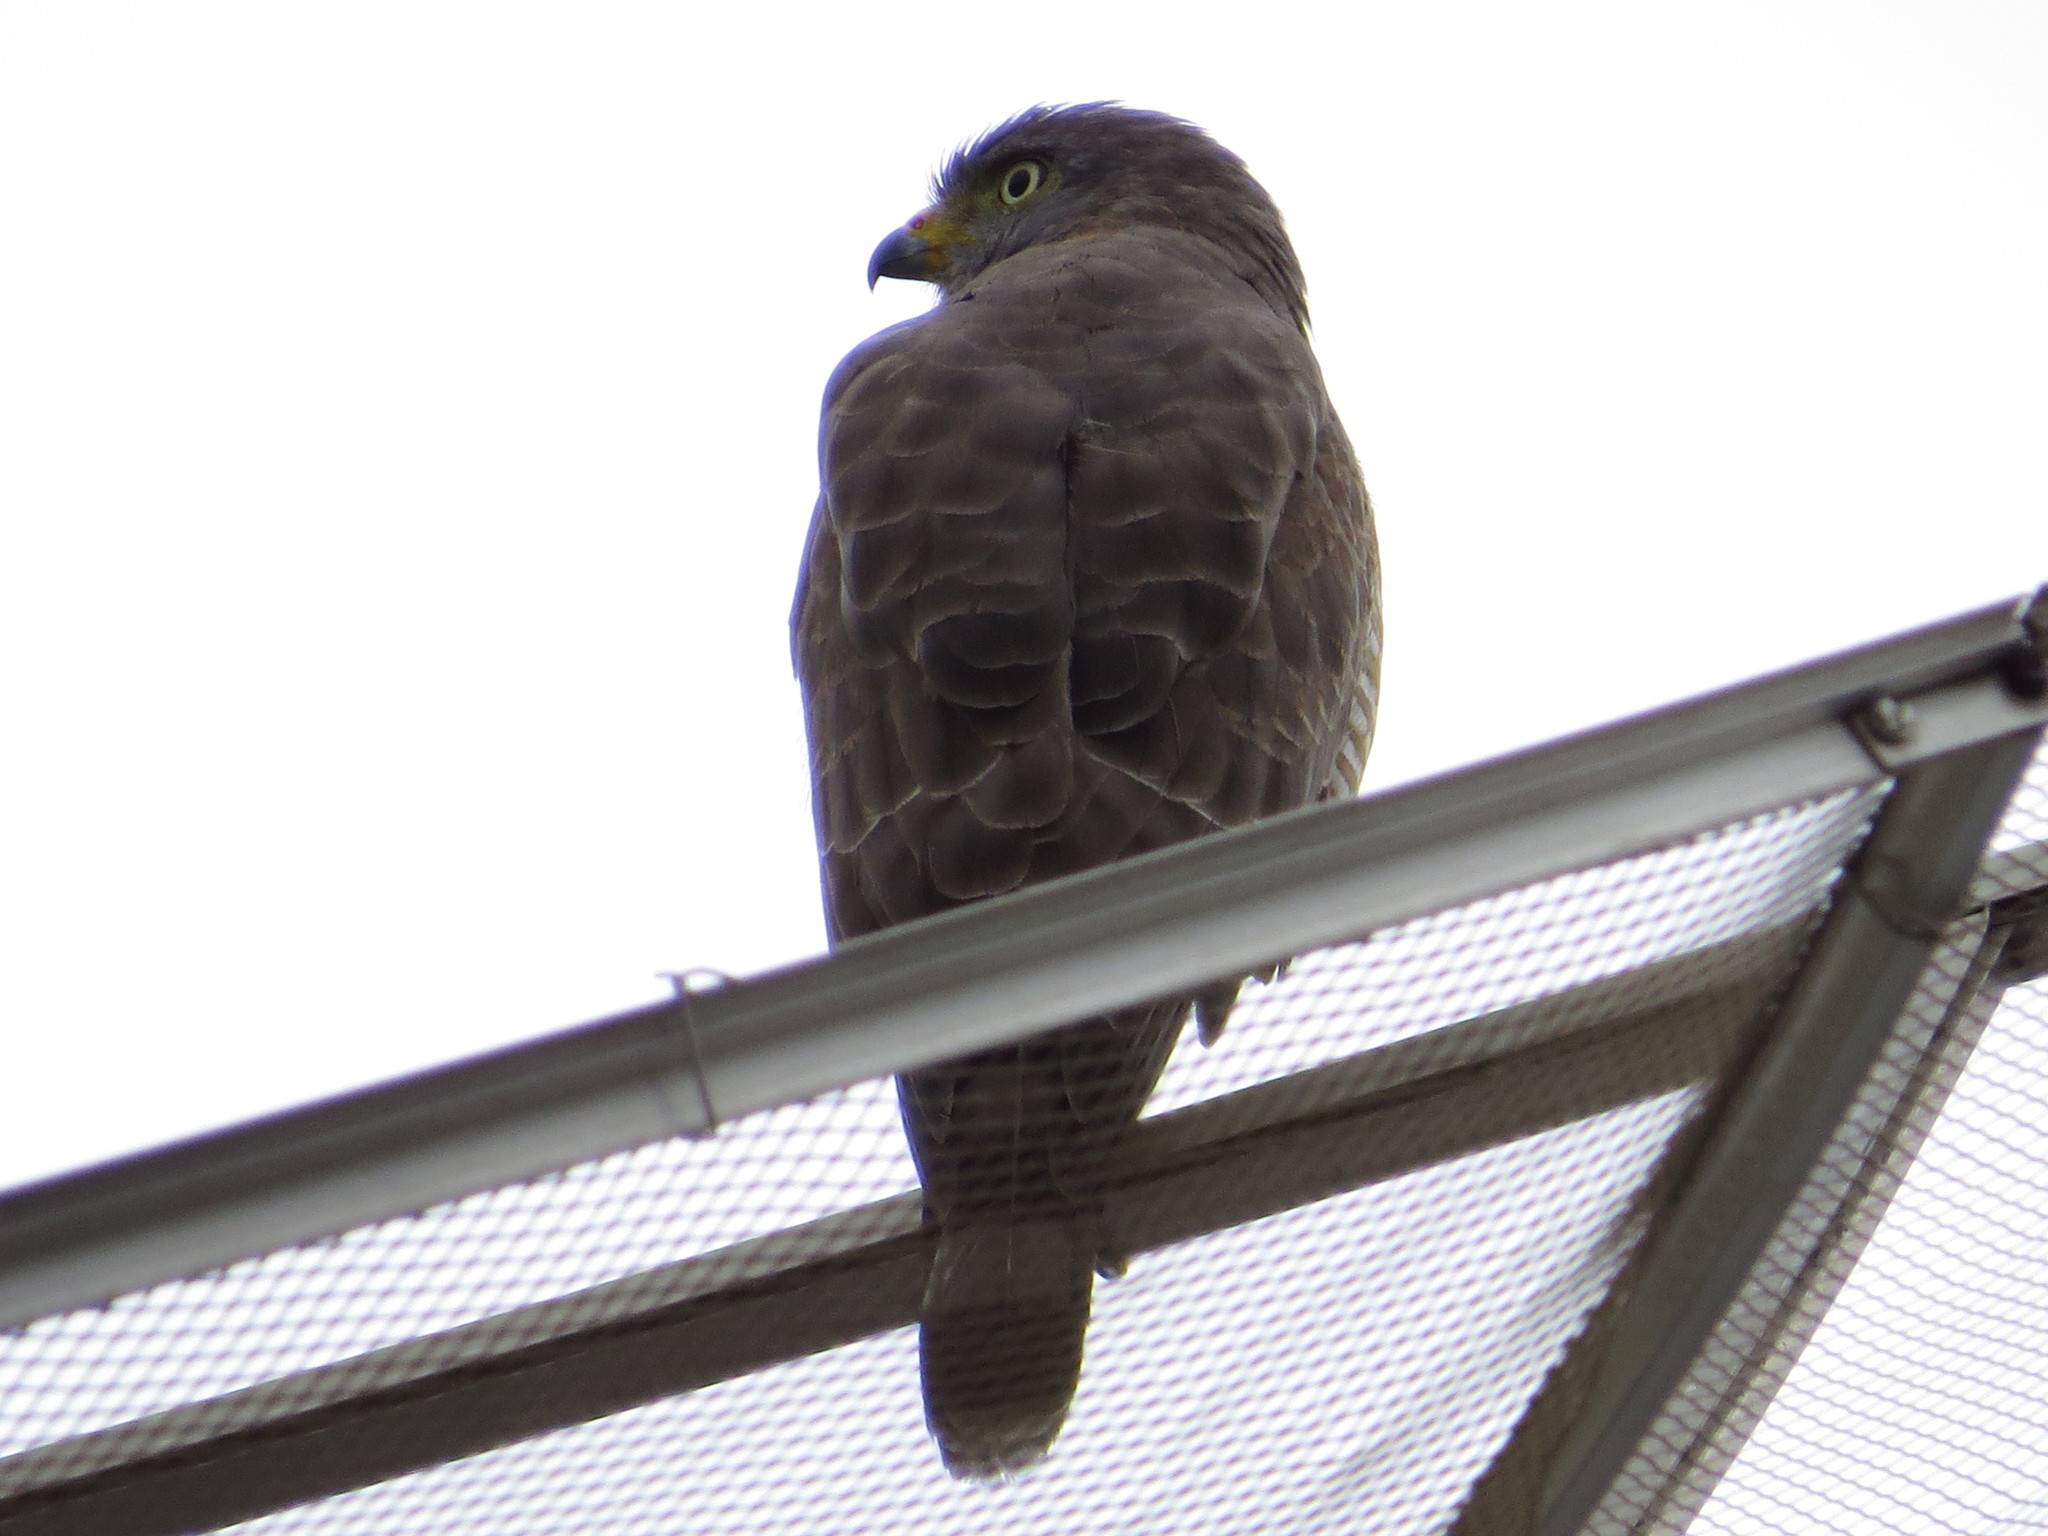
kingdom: Animalia
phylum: Chordata
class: Aves
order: Accipitriformes
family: Accipitridae
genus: Rupornis
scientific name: Rupornis magnirostris
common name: Roadside hawk
